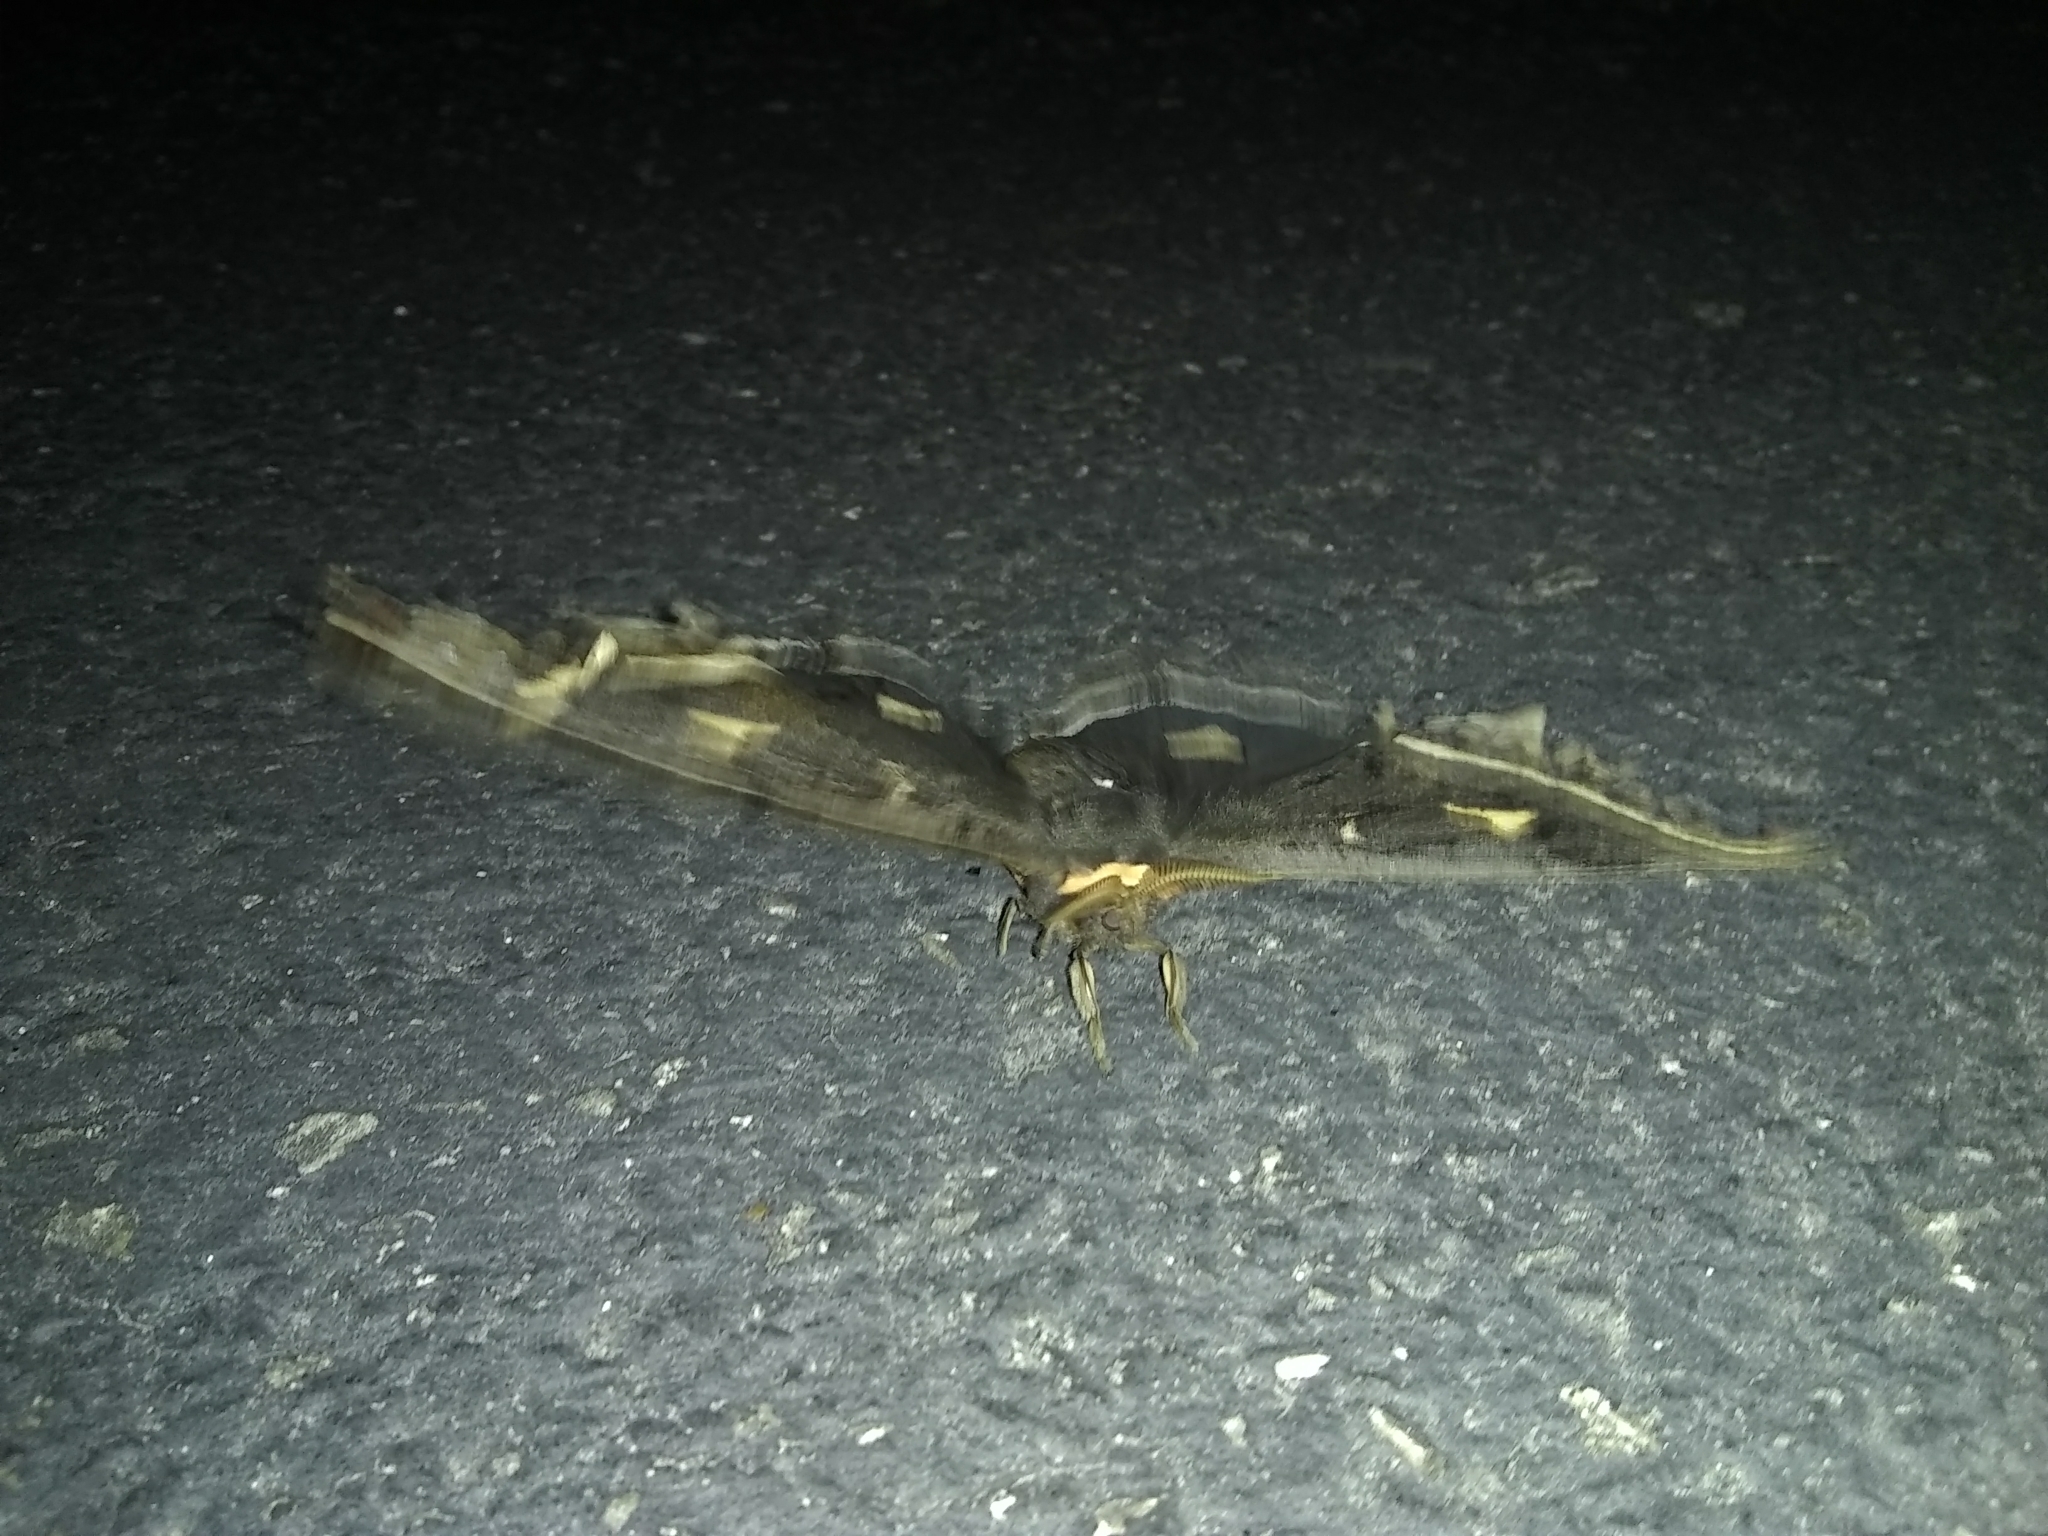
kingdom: Animalia
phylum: Arthropoda
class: Insecta
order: Lepidoptera
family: Saturniidae
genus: Eupackardia
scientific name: Eupackardia calleta
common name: Calleta silkmoth
